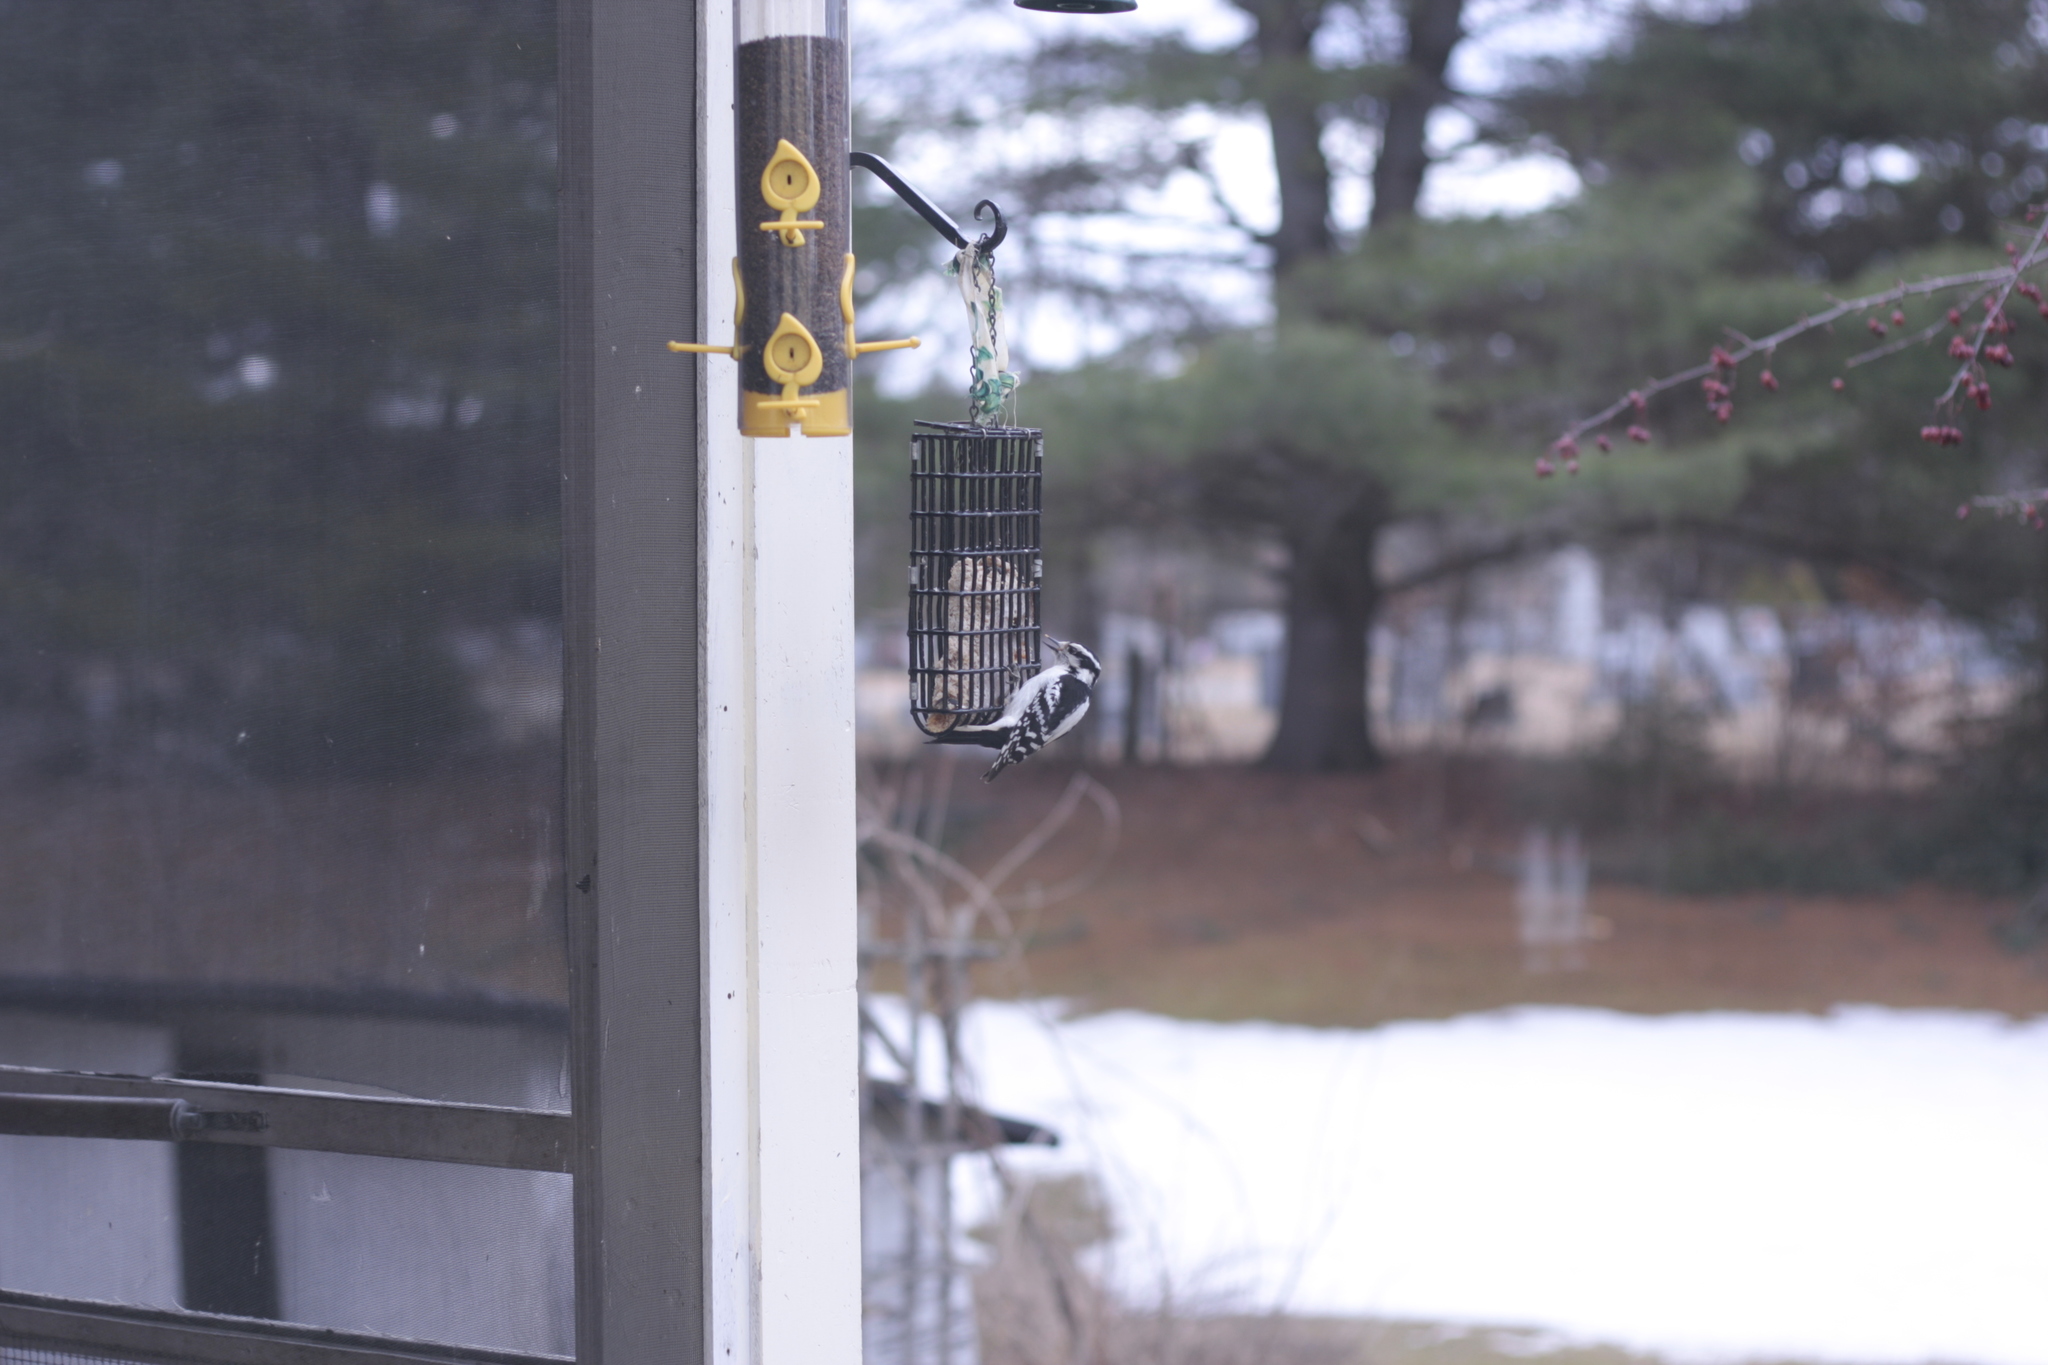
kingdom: Animalia
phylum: Chordata
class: Aves
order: Piciformes
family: Picidae
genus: Dryobates
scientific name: Dryobates pubescens
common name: Downy woodpecker
